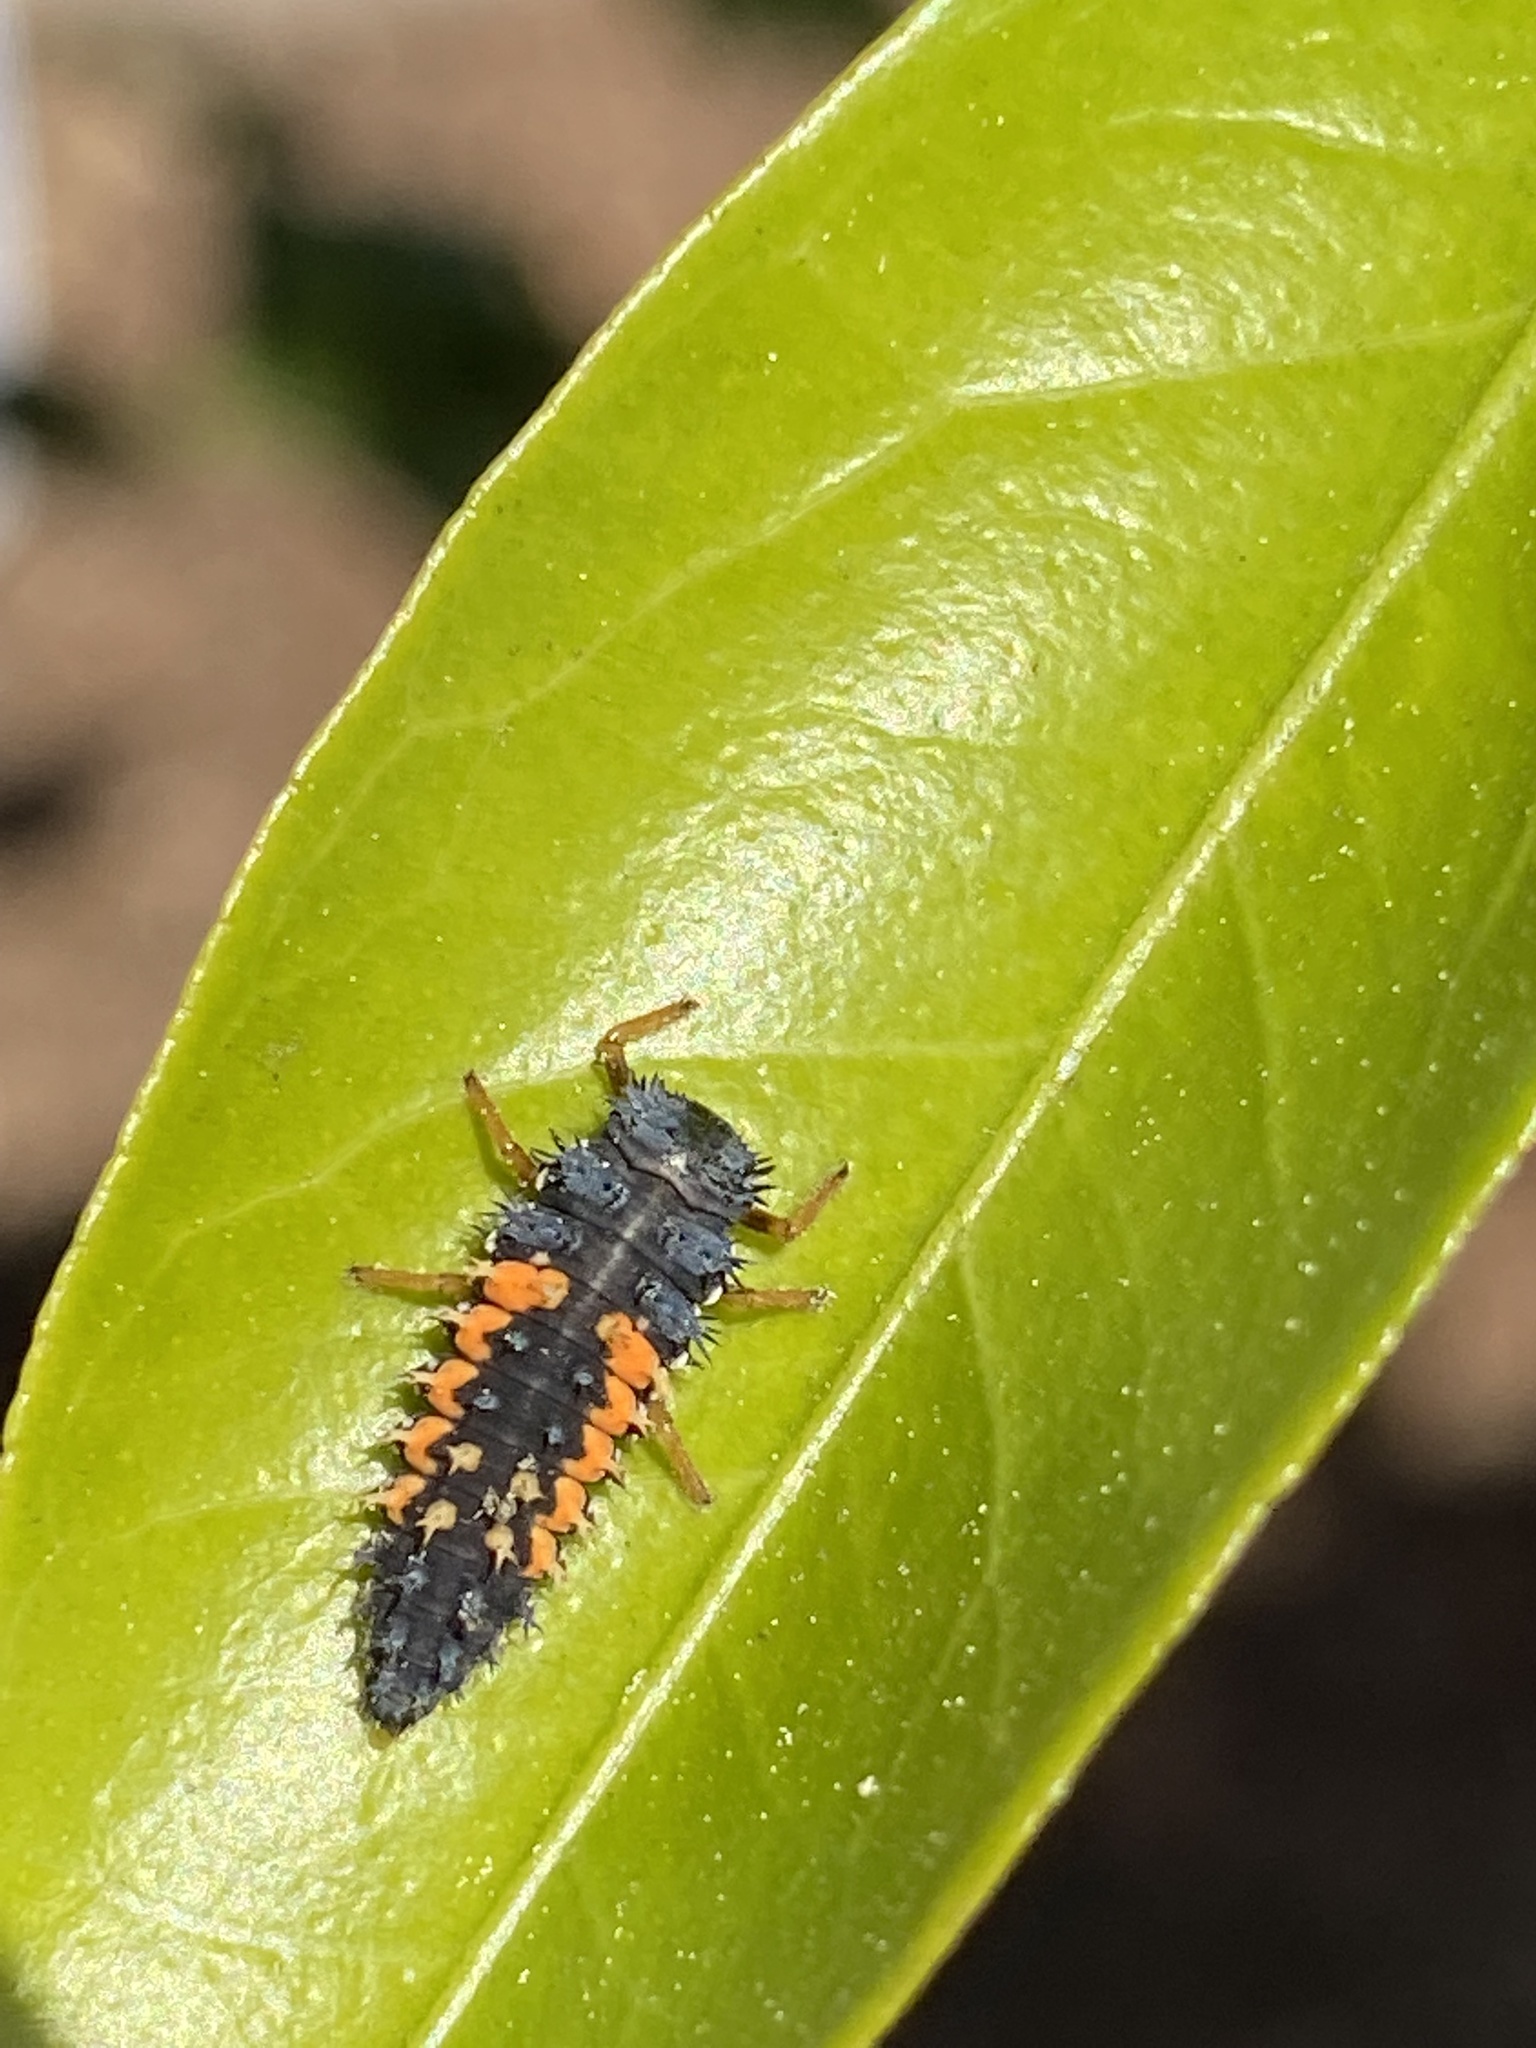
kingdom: Animalia
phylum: Arthropoda
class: Insecta
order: Coleoptera
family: Coccinellidae
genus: Harmonia
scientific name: Harmonia axyridis
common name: Harlequin ladybird
